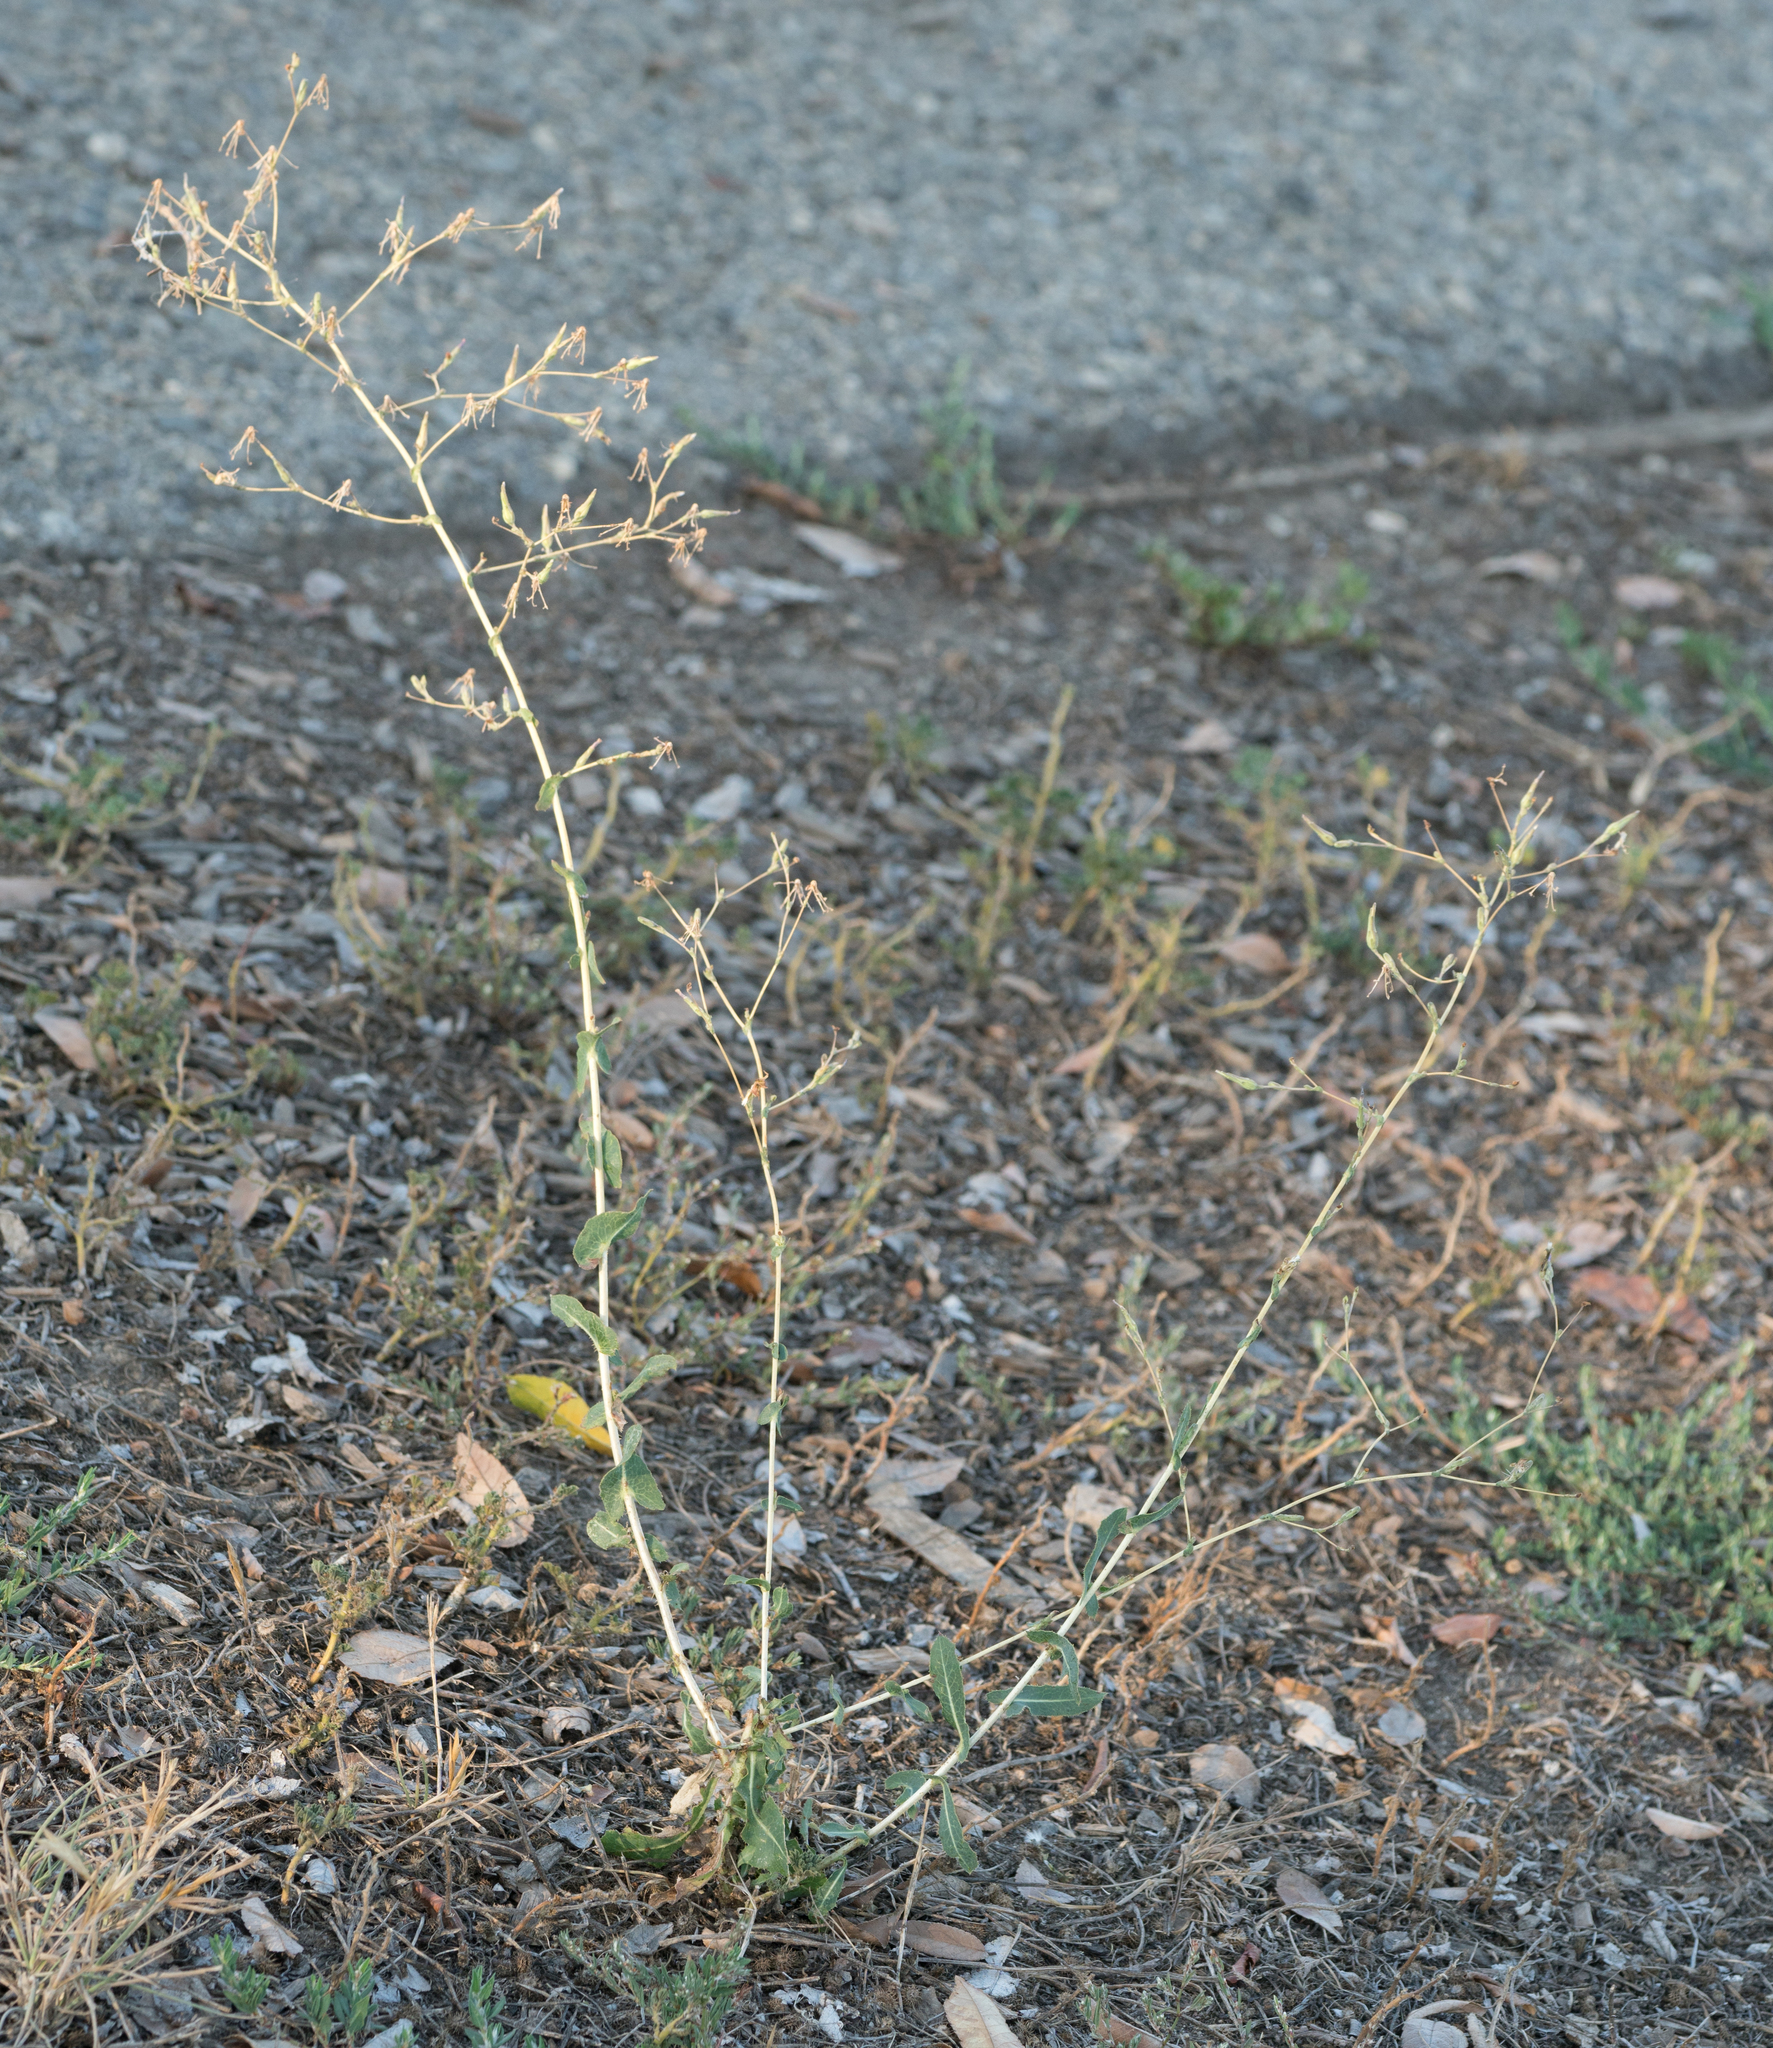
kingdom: Plantae
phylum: Tracheophyta
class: Magnoliopsida
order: Asterales
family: Asteraceae
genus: Lactuca
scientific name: Lactuca serriola
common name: Prickly lettuce
